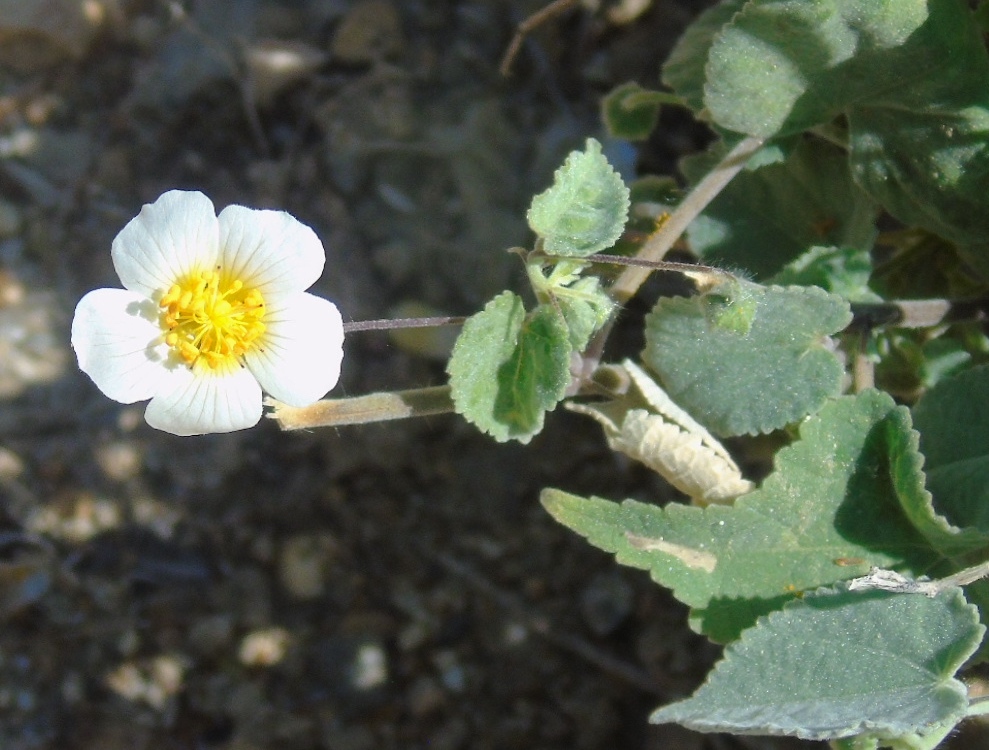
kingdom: Plantae
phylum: Tracheophyta
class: Magnoliopsida
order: Malvales
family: Malvaceae
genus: Herissantia
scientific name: Herissantia crispa
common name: Bladdermallow
